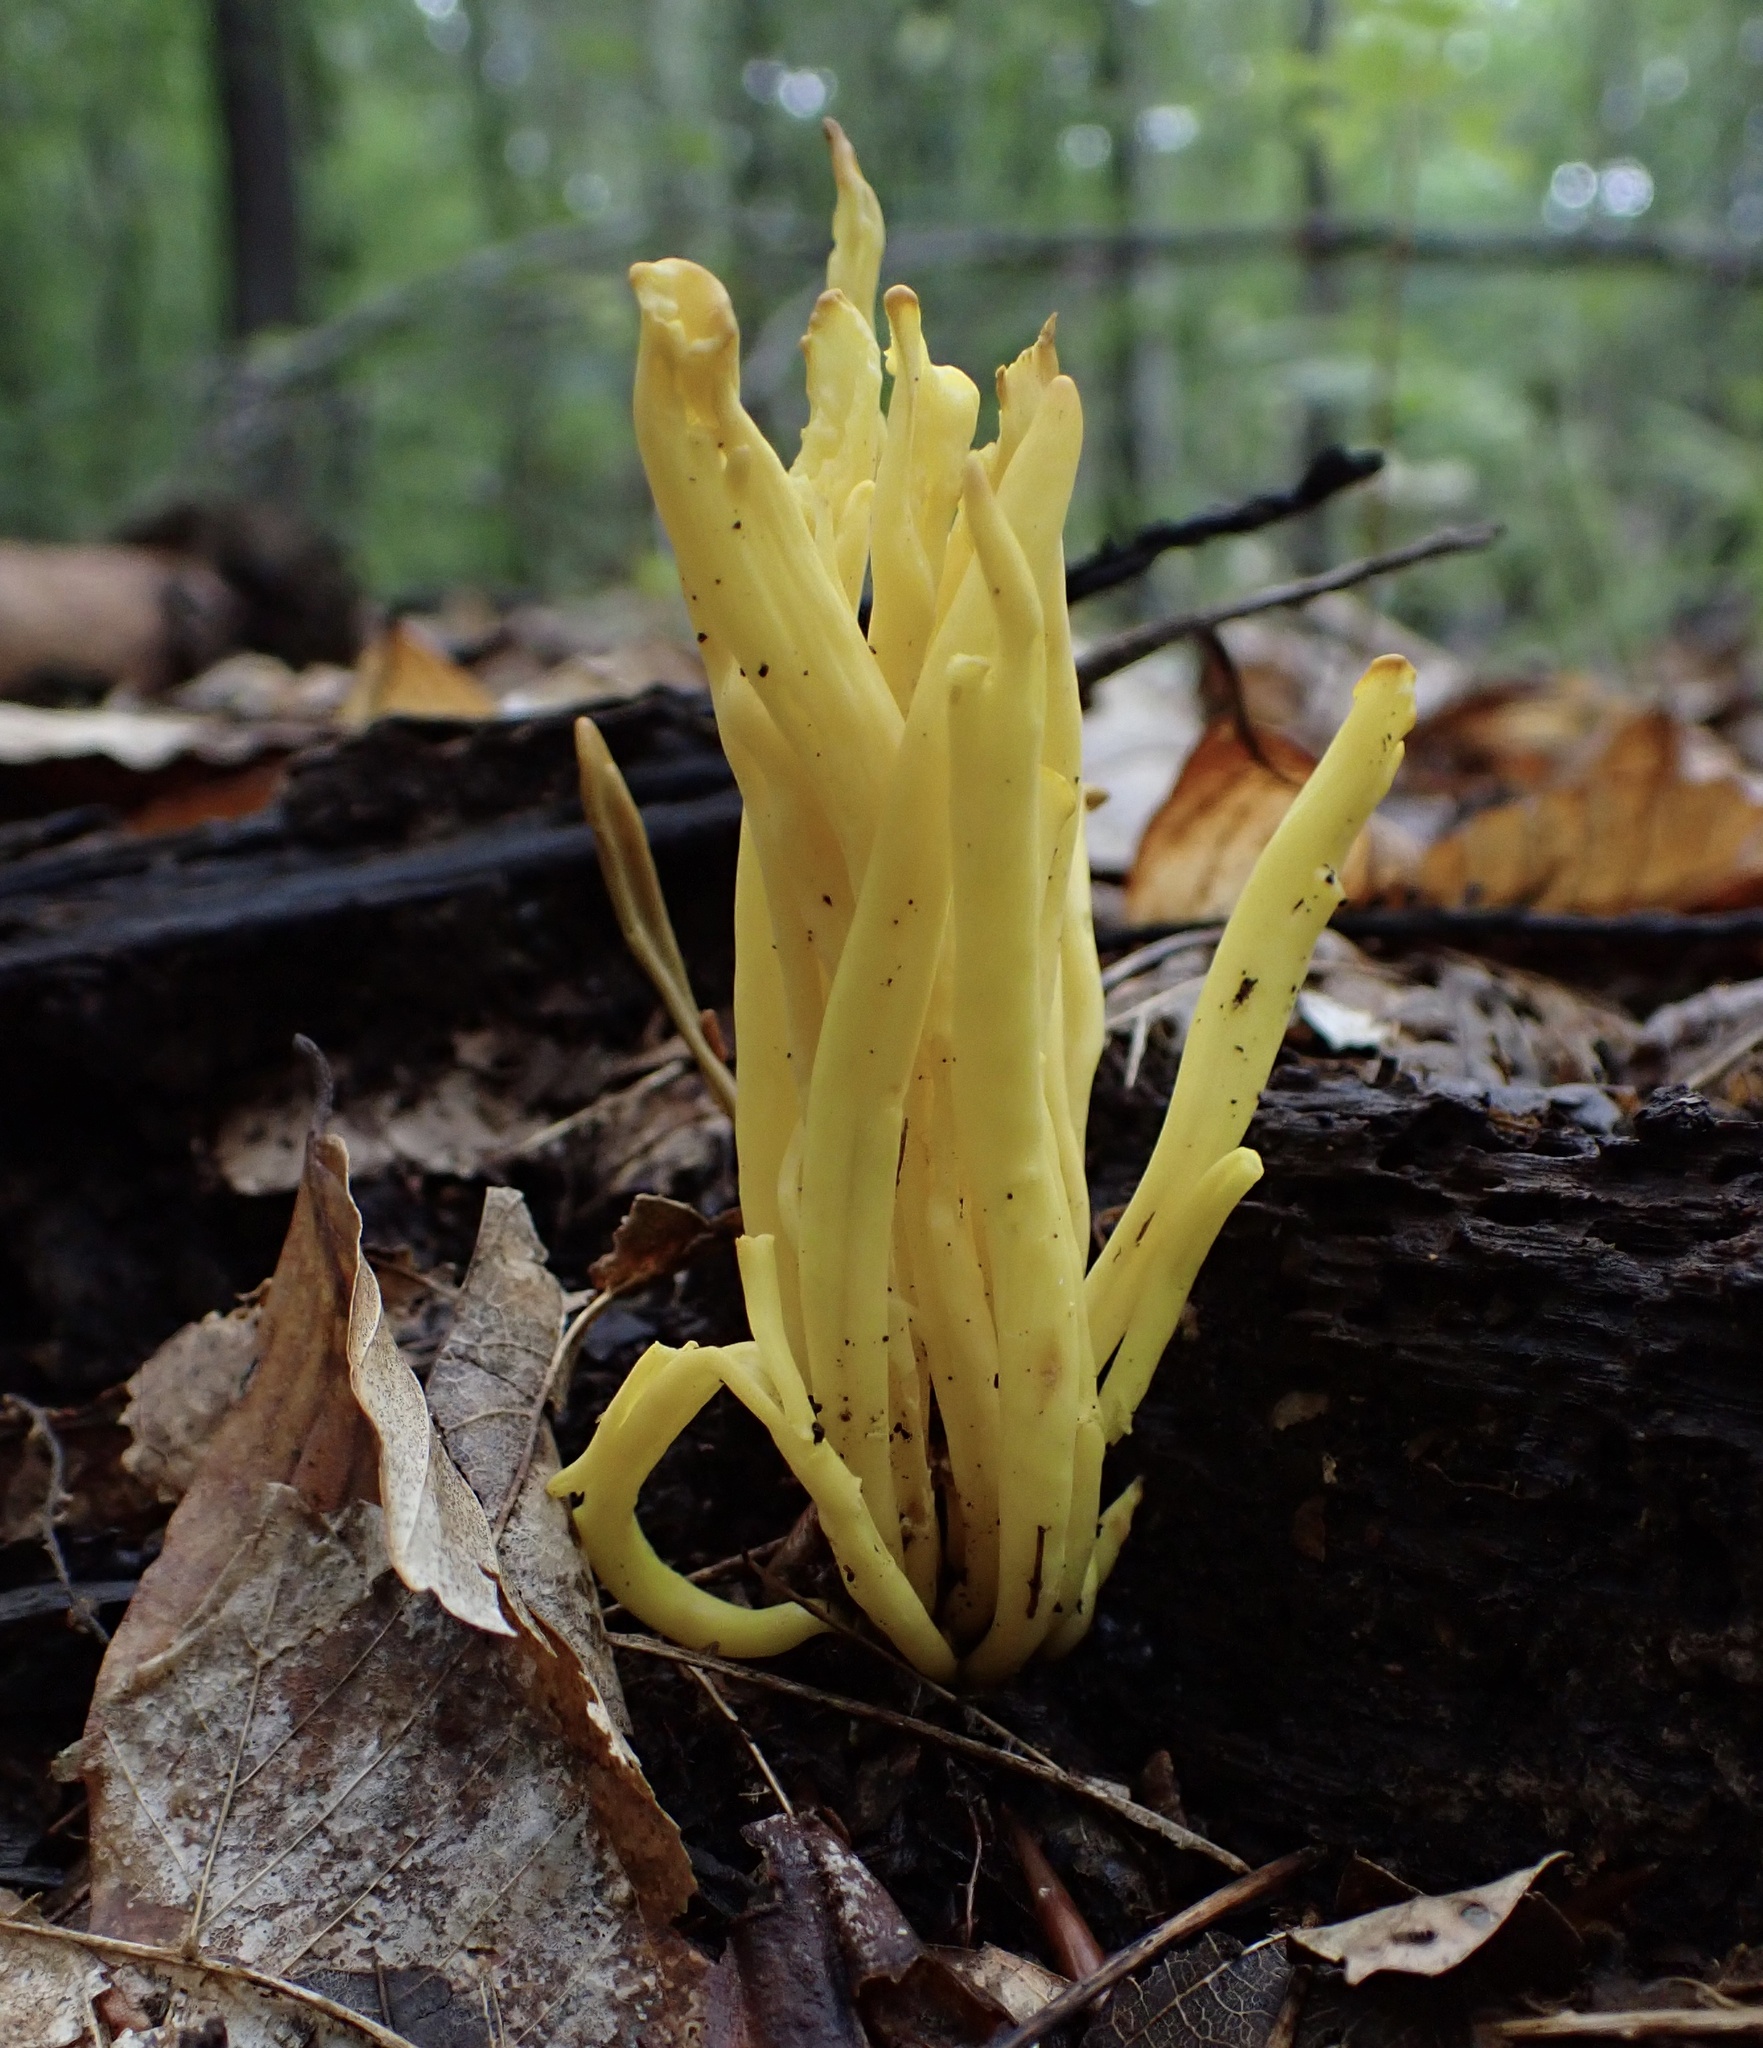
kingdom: Fungi
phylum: Basidiomycota
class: Agaricomycetes
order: Agaricales
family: Clavariaceae
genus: Clavulinopsis
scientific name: Clavulinopsis fusiformis
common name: Golden spindles
